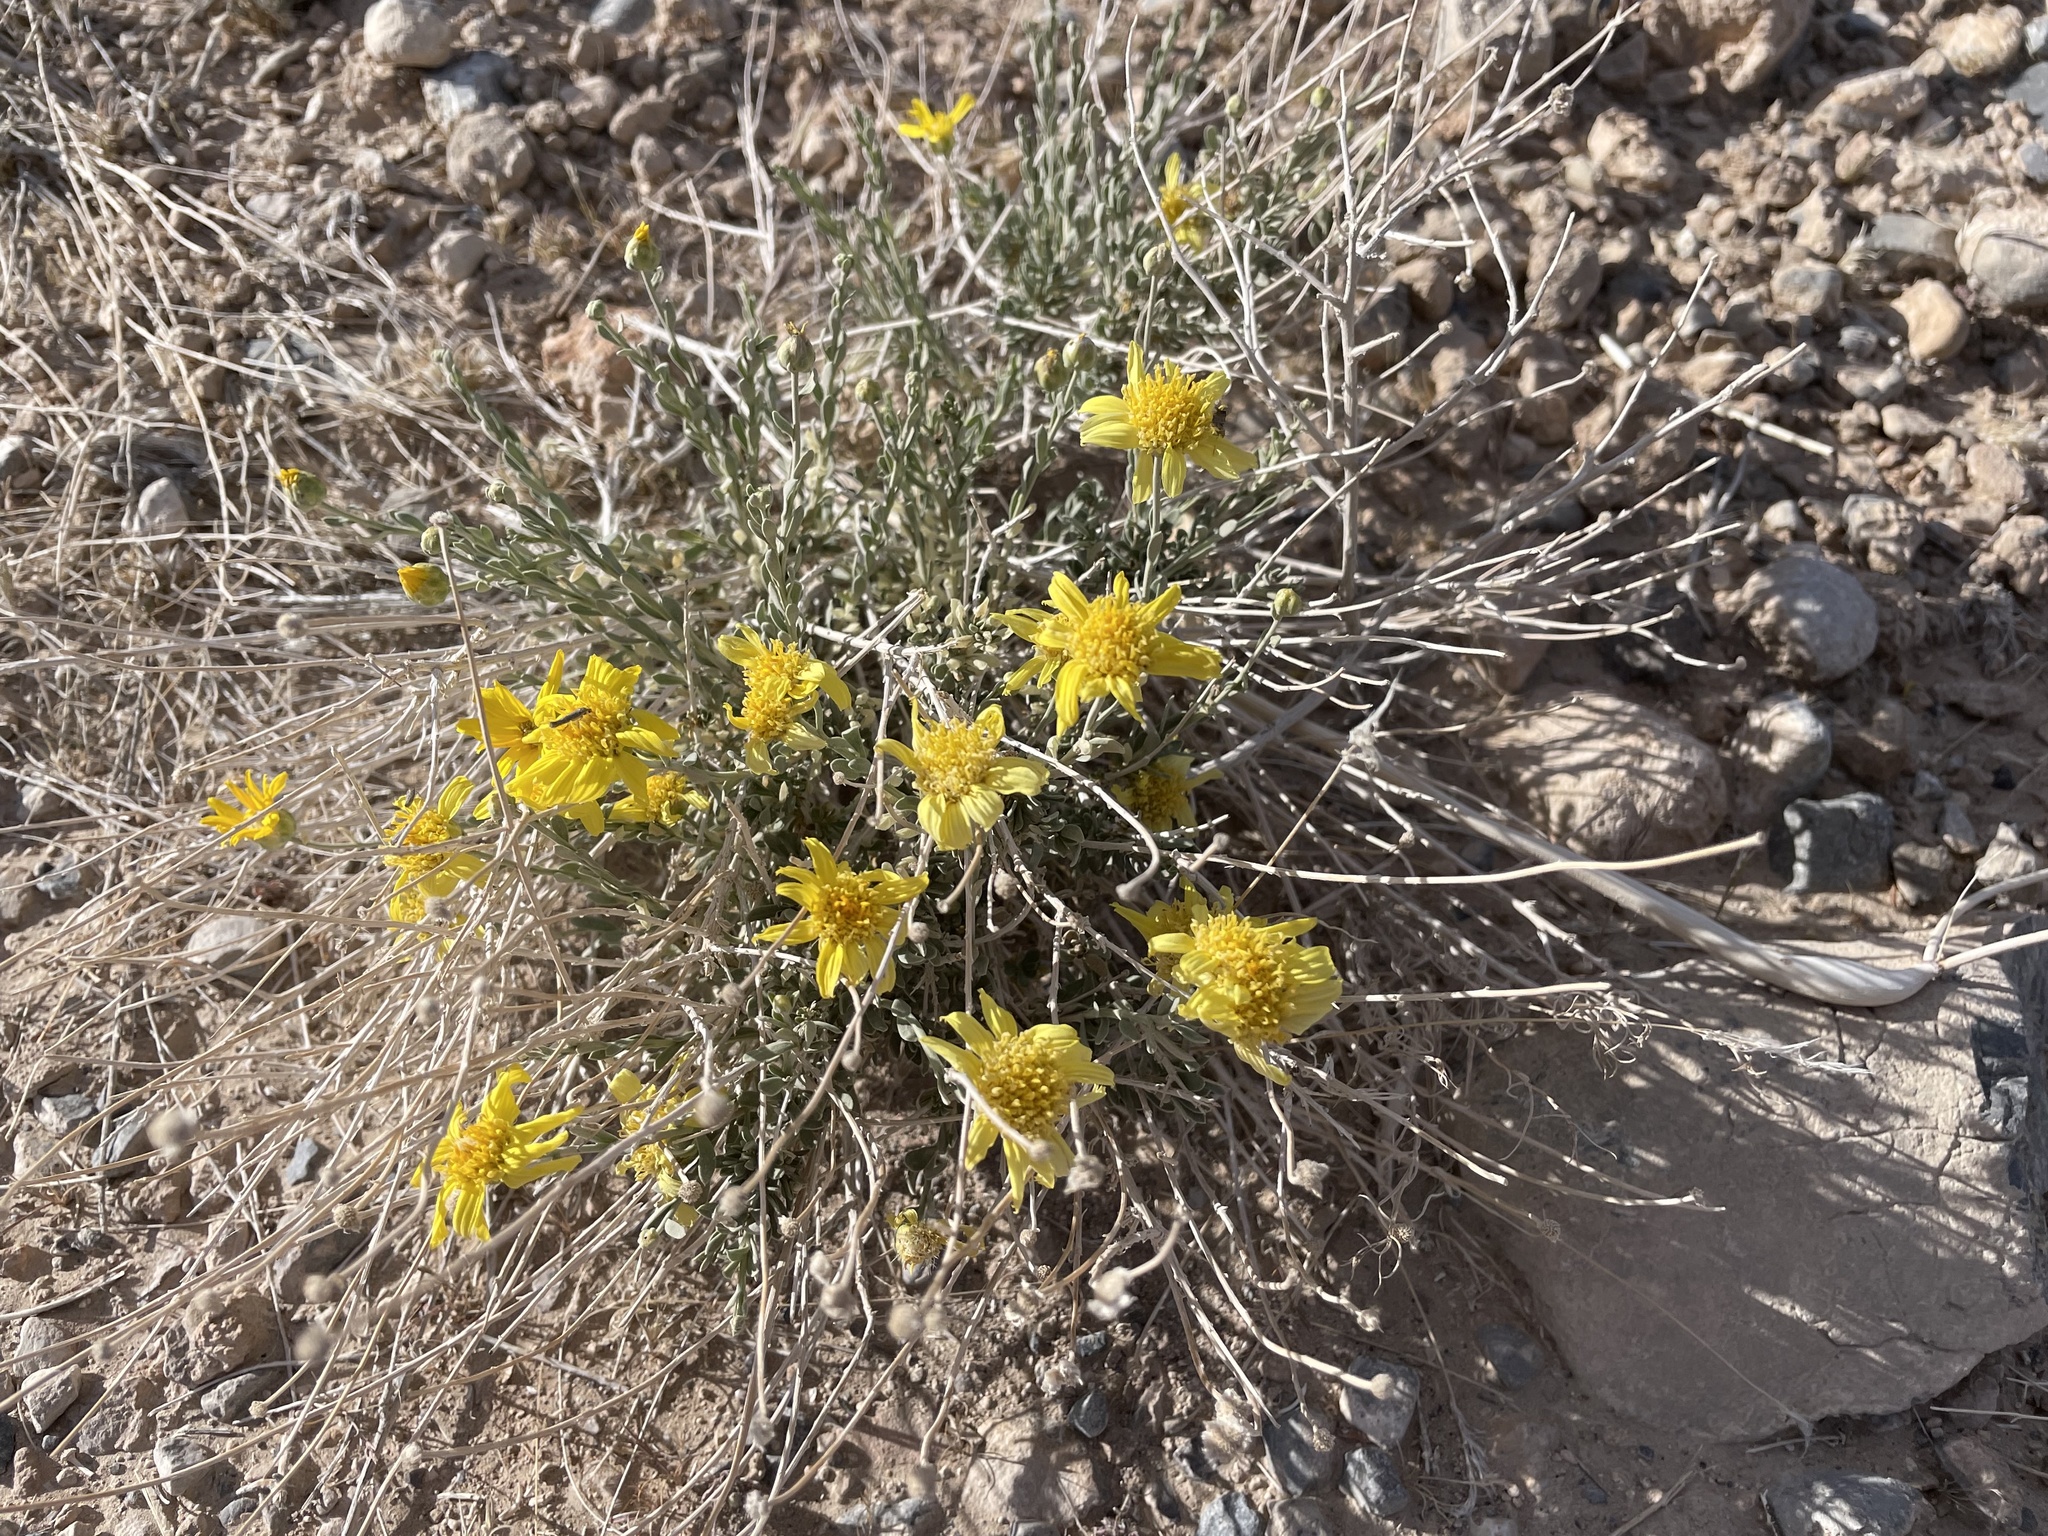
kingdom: Plantae
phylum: Tracheophyta
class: Magnoliopsida
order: Asterales
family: Asteraceae
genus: Acamptopappus
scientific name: Acamptopappus shockleyi
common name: Shockley's goldenhead
